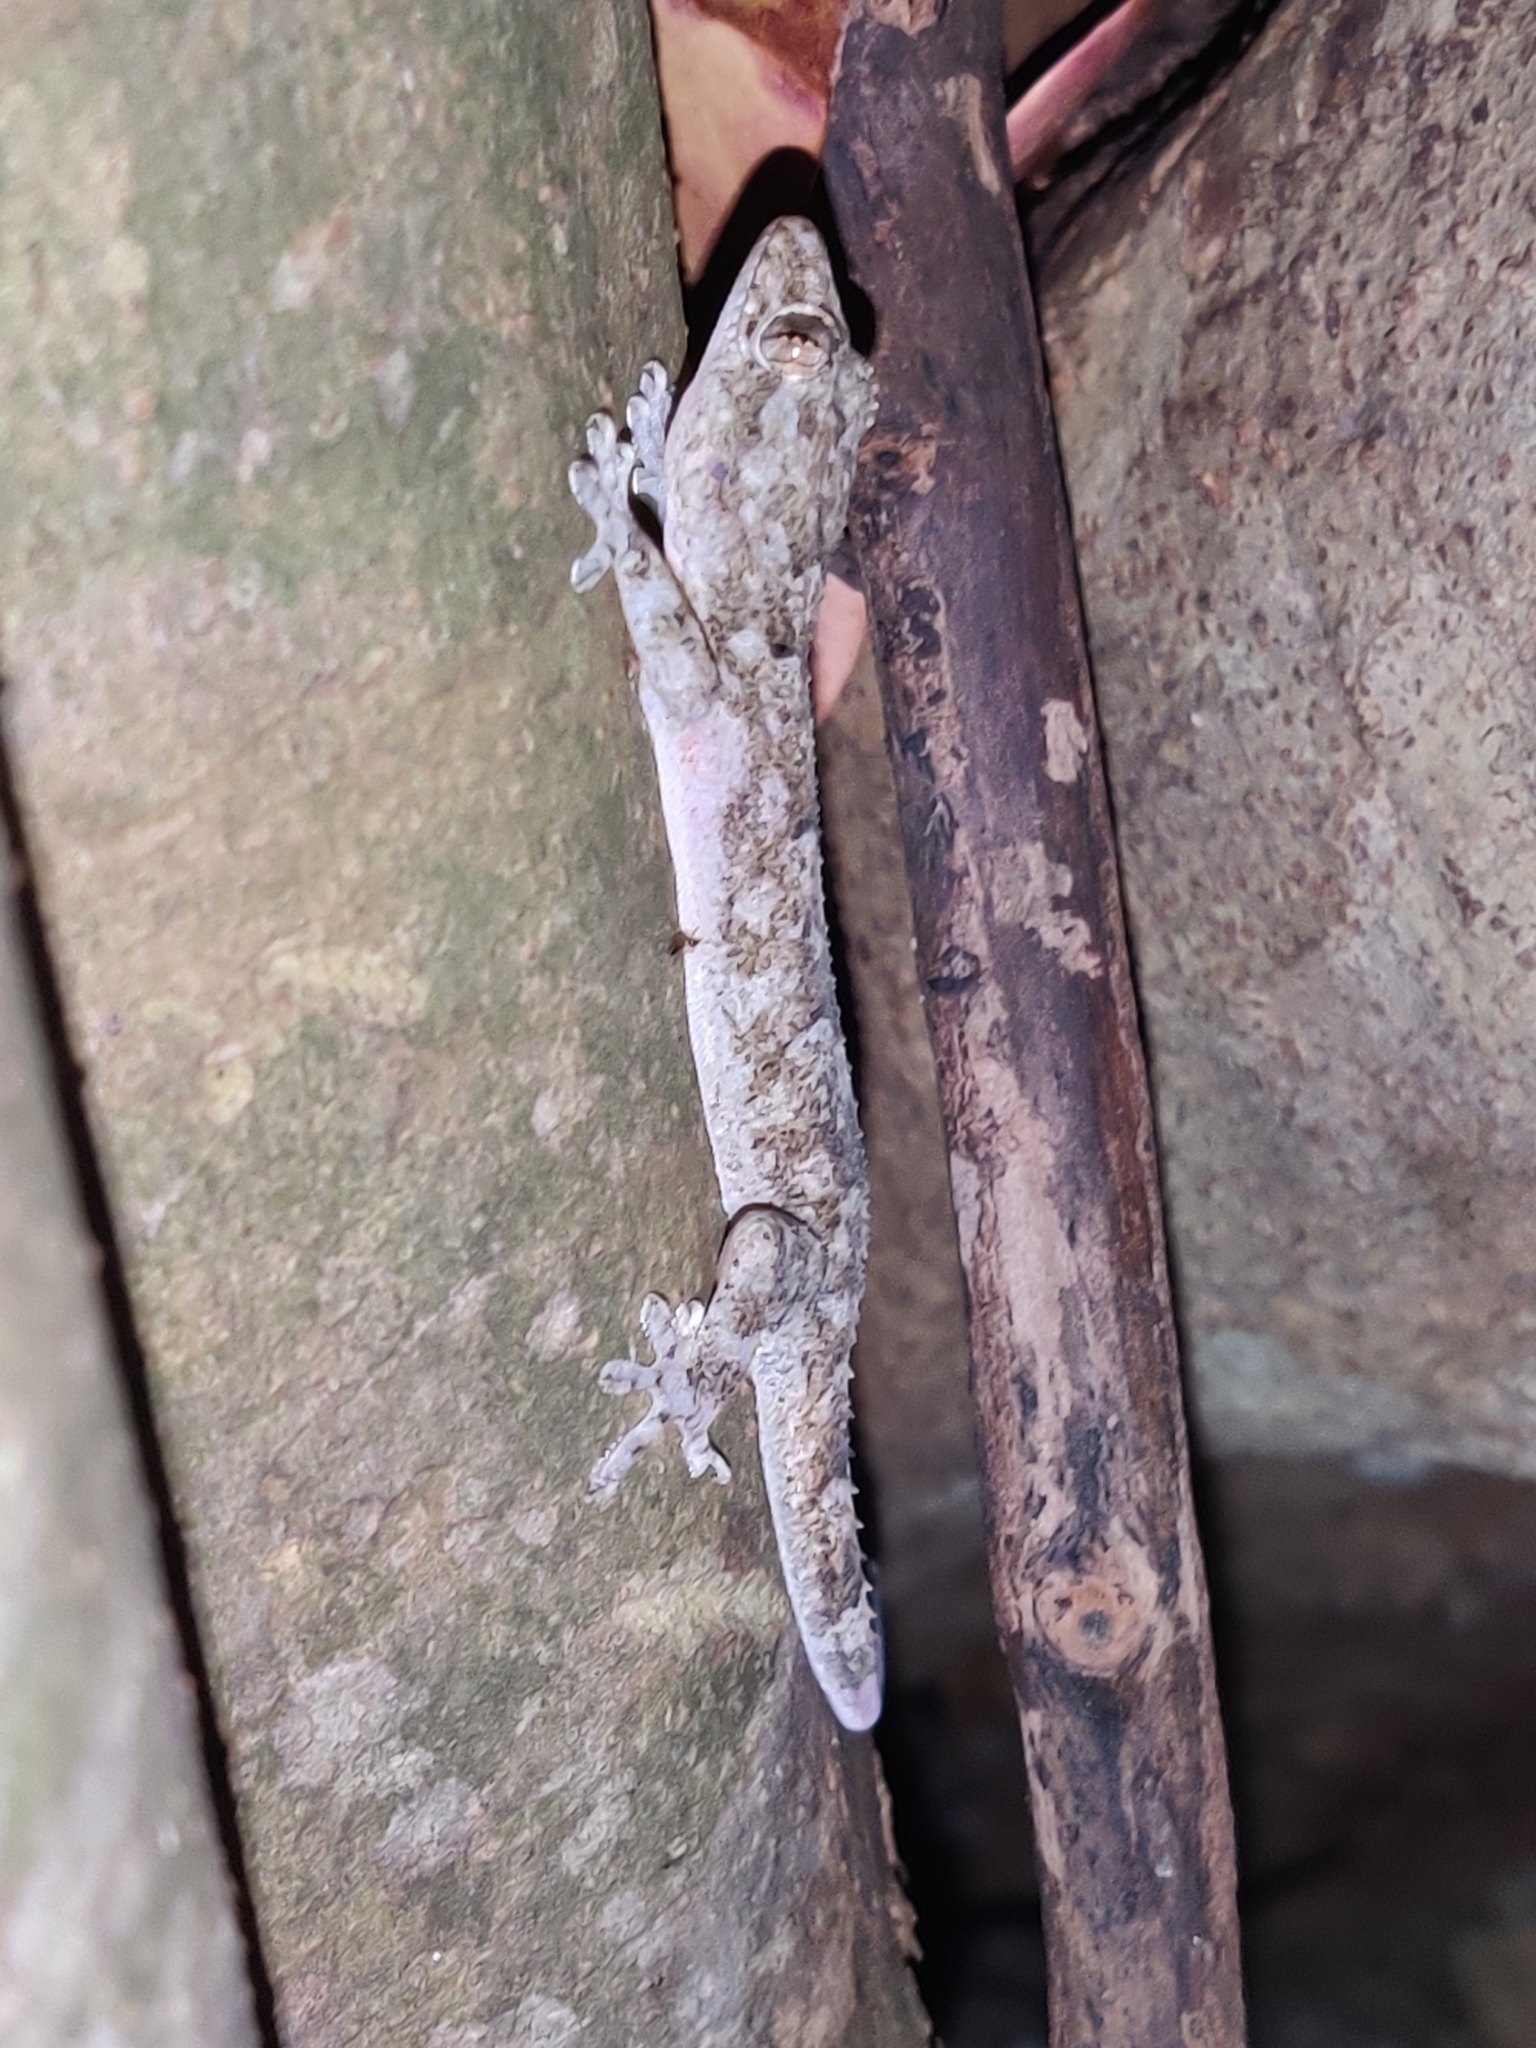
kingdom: Animalia
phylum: Chordata
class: Squamata
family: Gekkonidae
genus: Hemidactylus
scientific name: Hemidactylus mabouia
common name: House gecko
